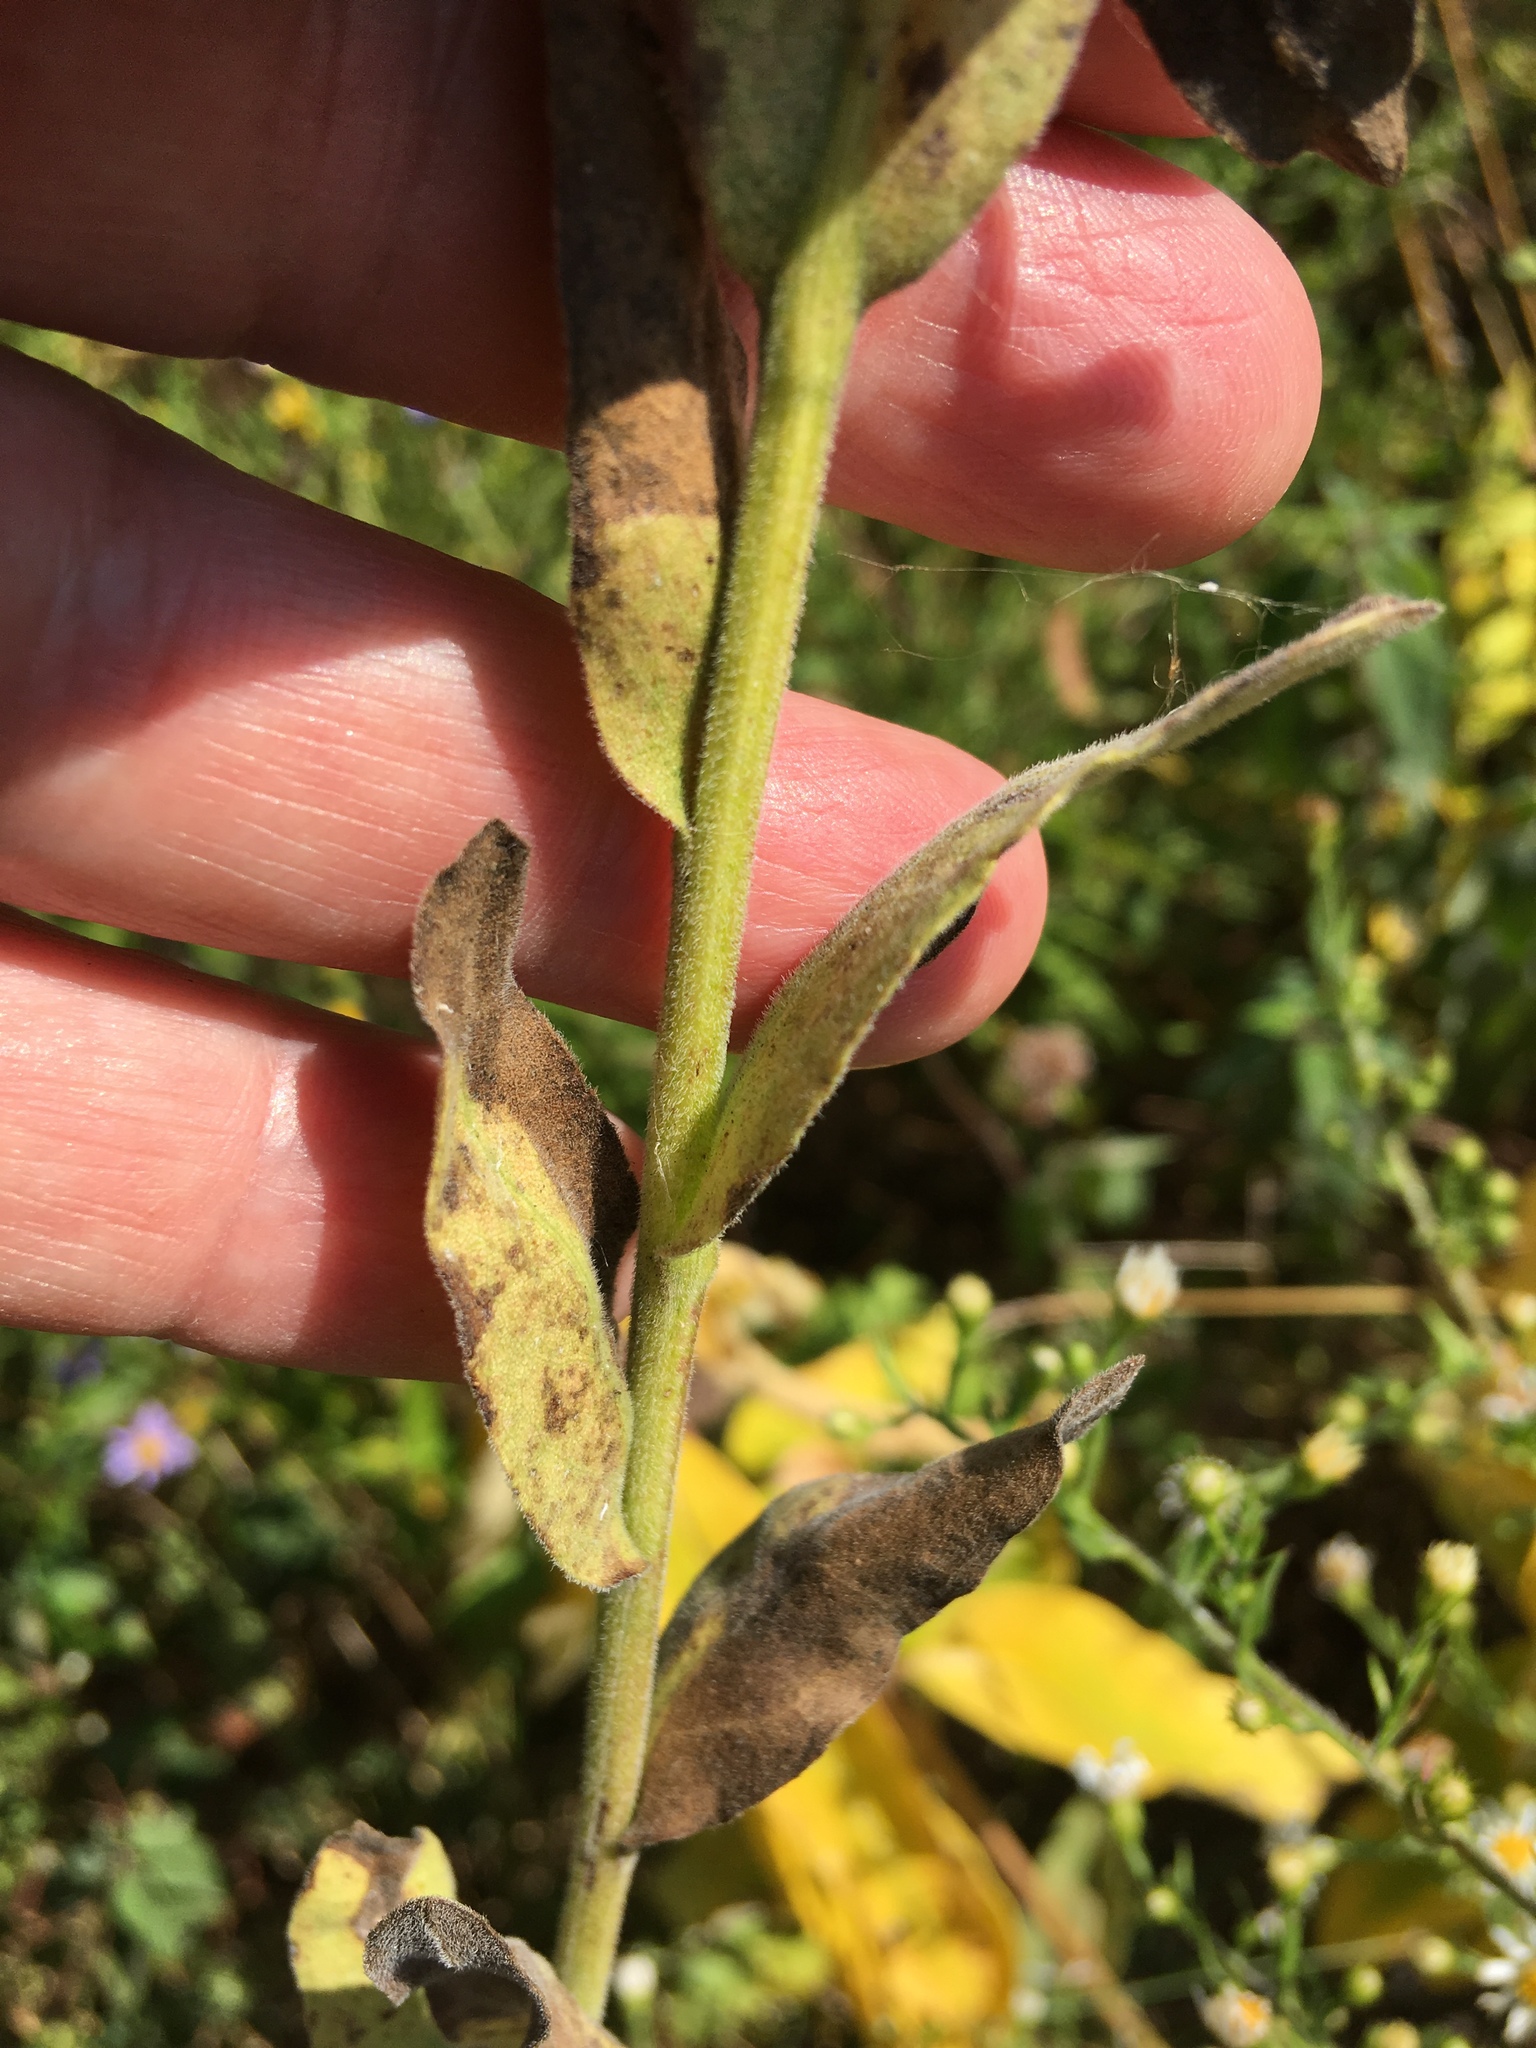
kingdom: Plantae
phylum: Tracheophyta
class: Magnoliopsida
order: Asterales
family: Asteraceae
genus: Solidago
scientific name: Solidago rigida
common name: Rigid goldenrod
